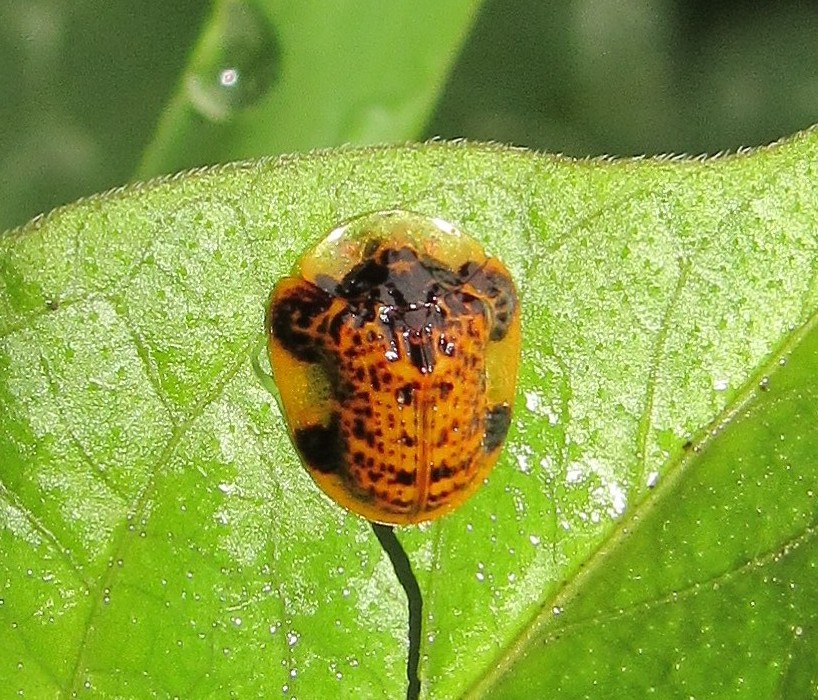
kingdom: Animalia
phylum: Arthropoda
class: Insecta
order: Coleoptera
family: Chrysomelidae
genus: Microctenochira
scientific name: Microctenochira optata
